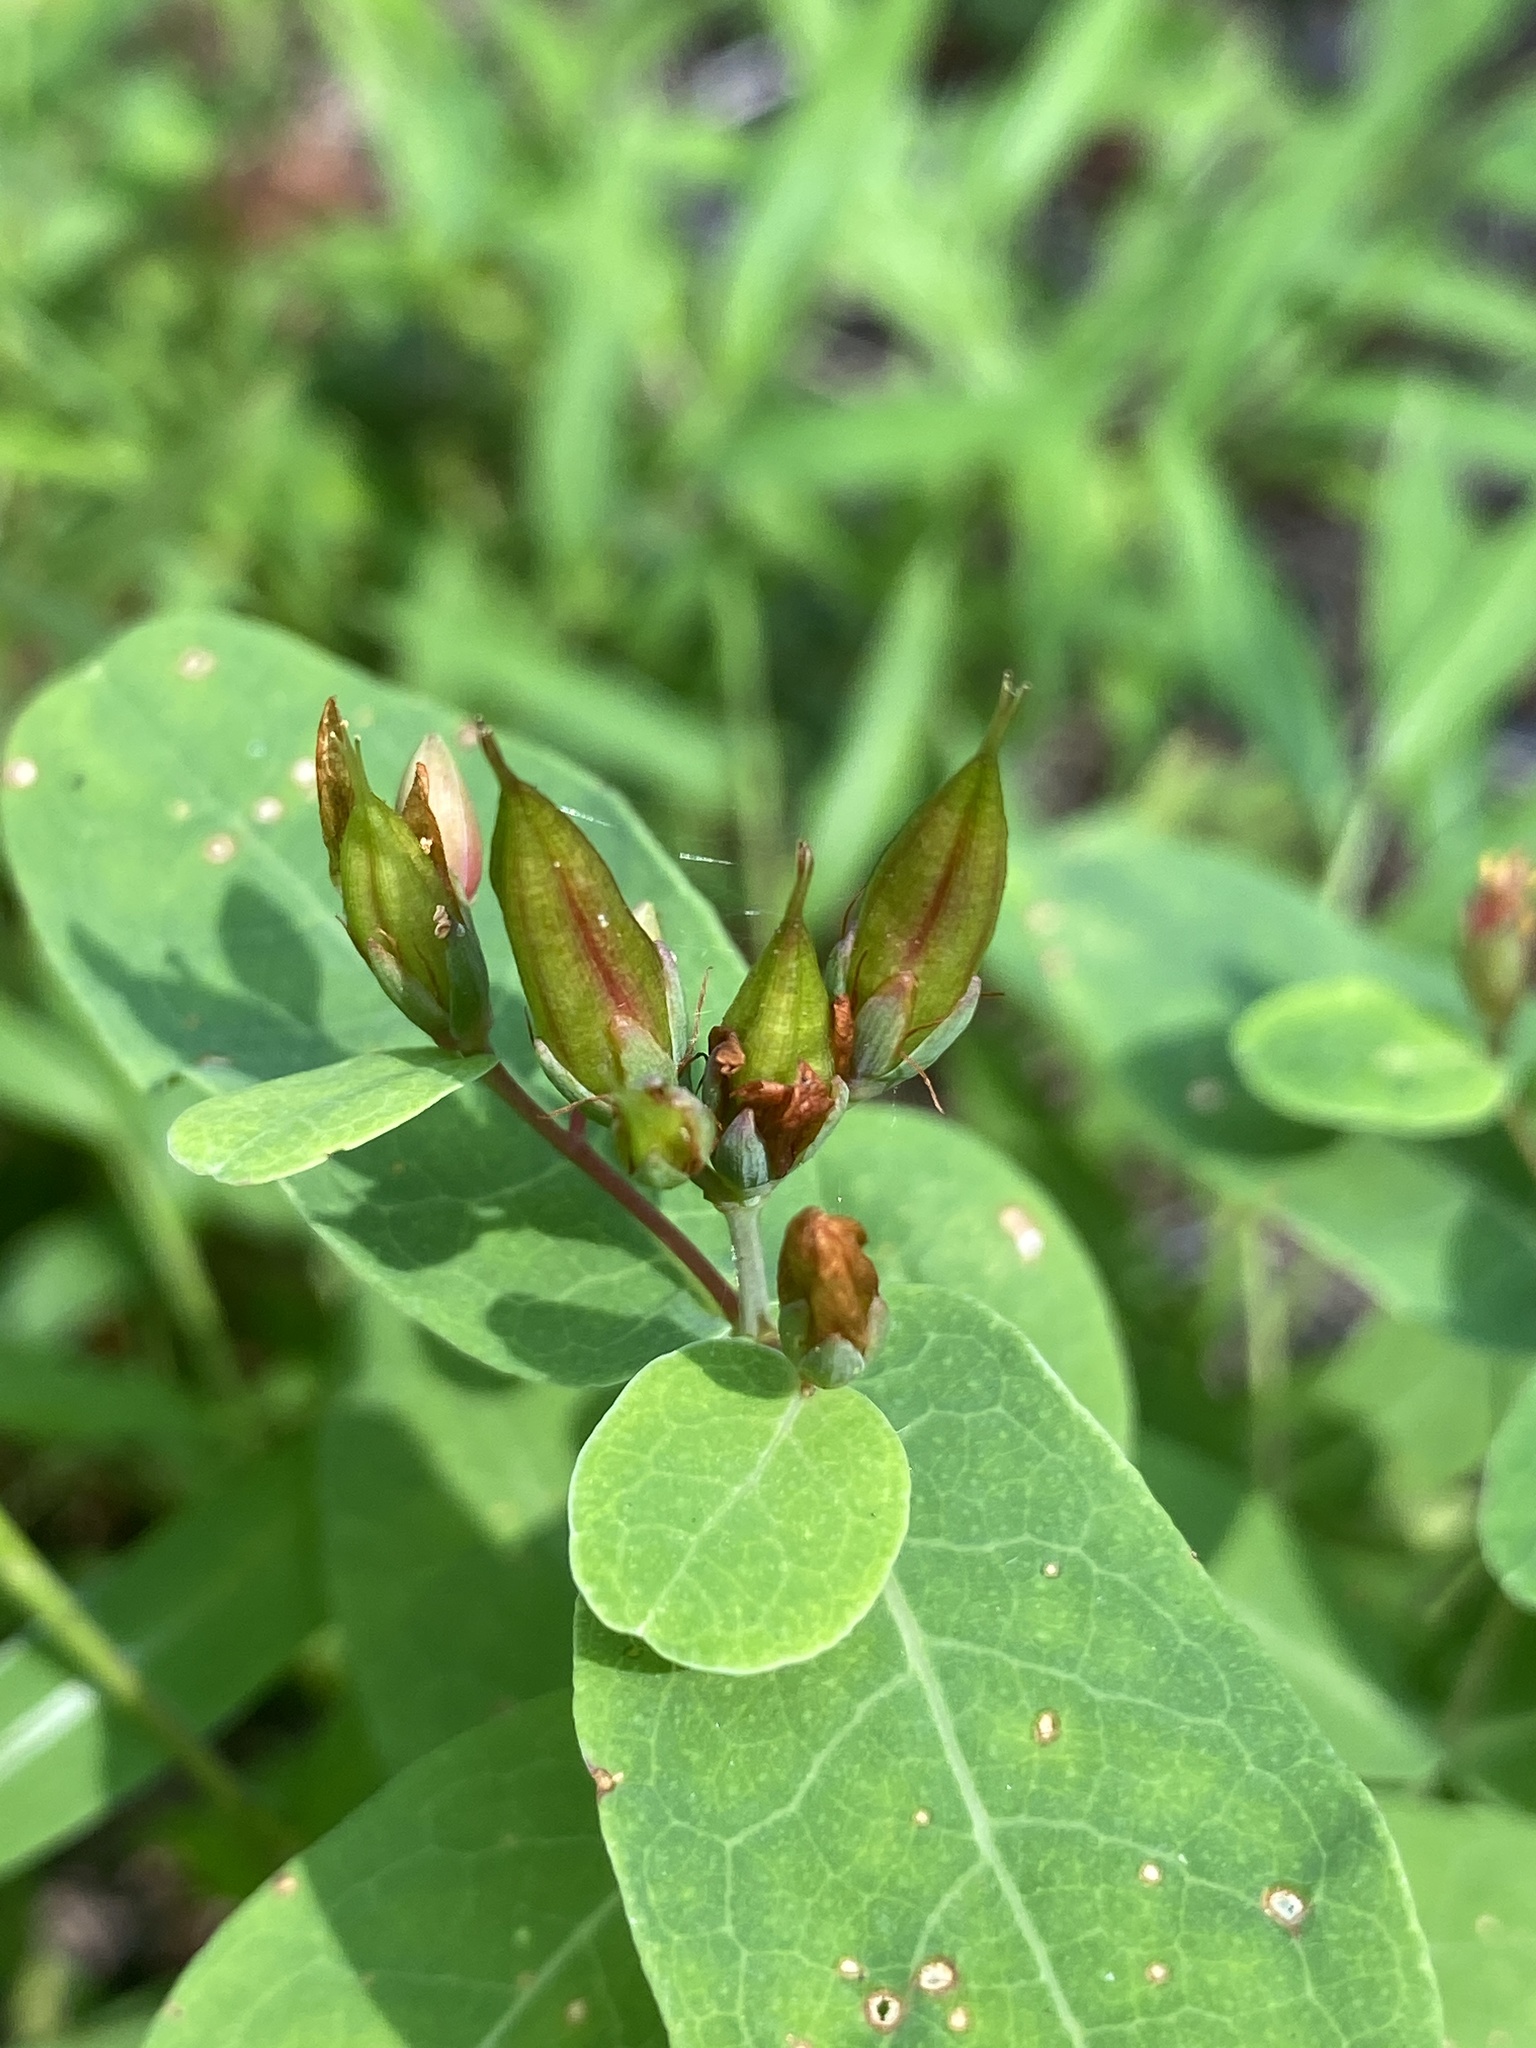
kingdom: Plantae
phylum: Tracheophyta
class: Magnoliopsida
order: Malpighiales
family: Hypericaceae
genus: Triadenum
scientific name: Triadenum virginicum
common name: Marsh st. john's-wort
